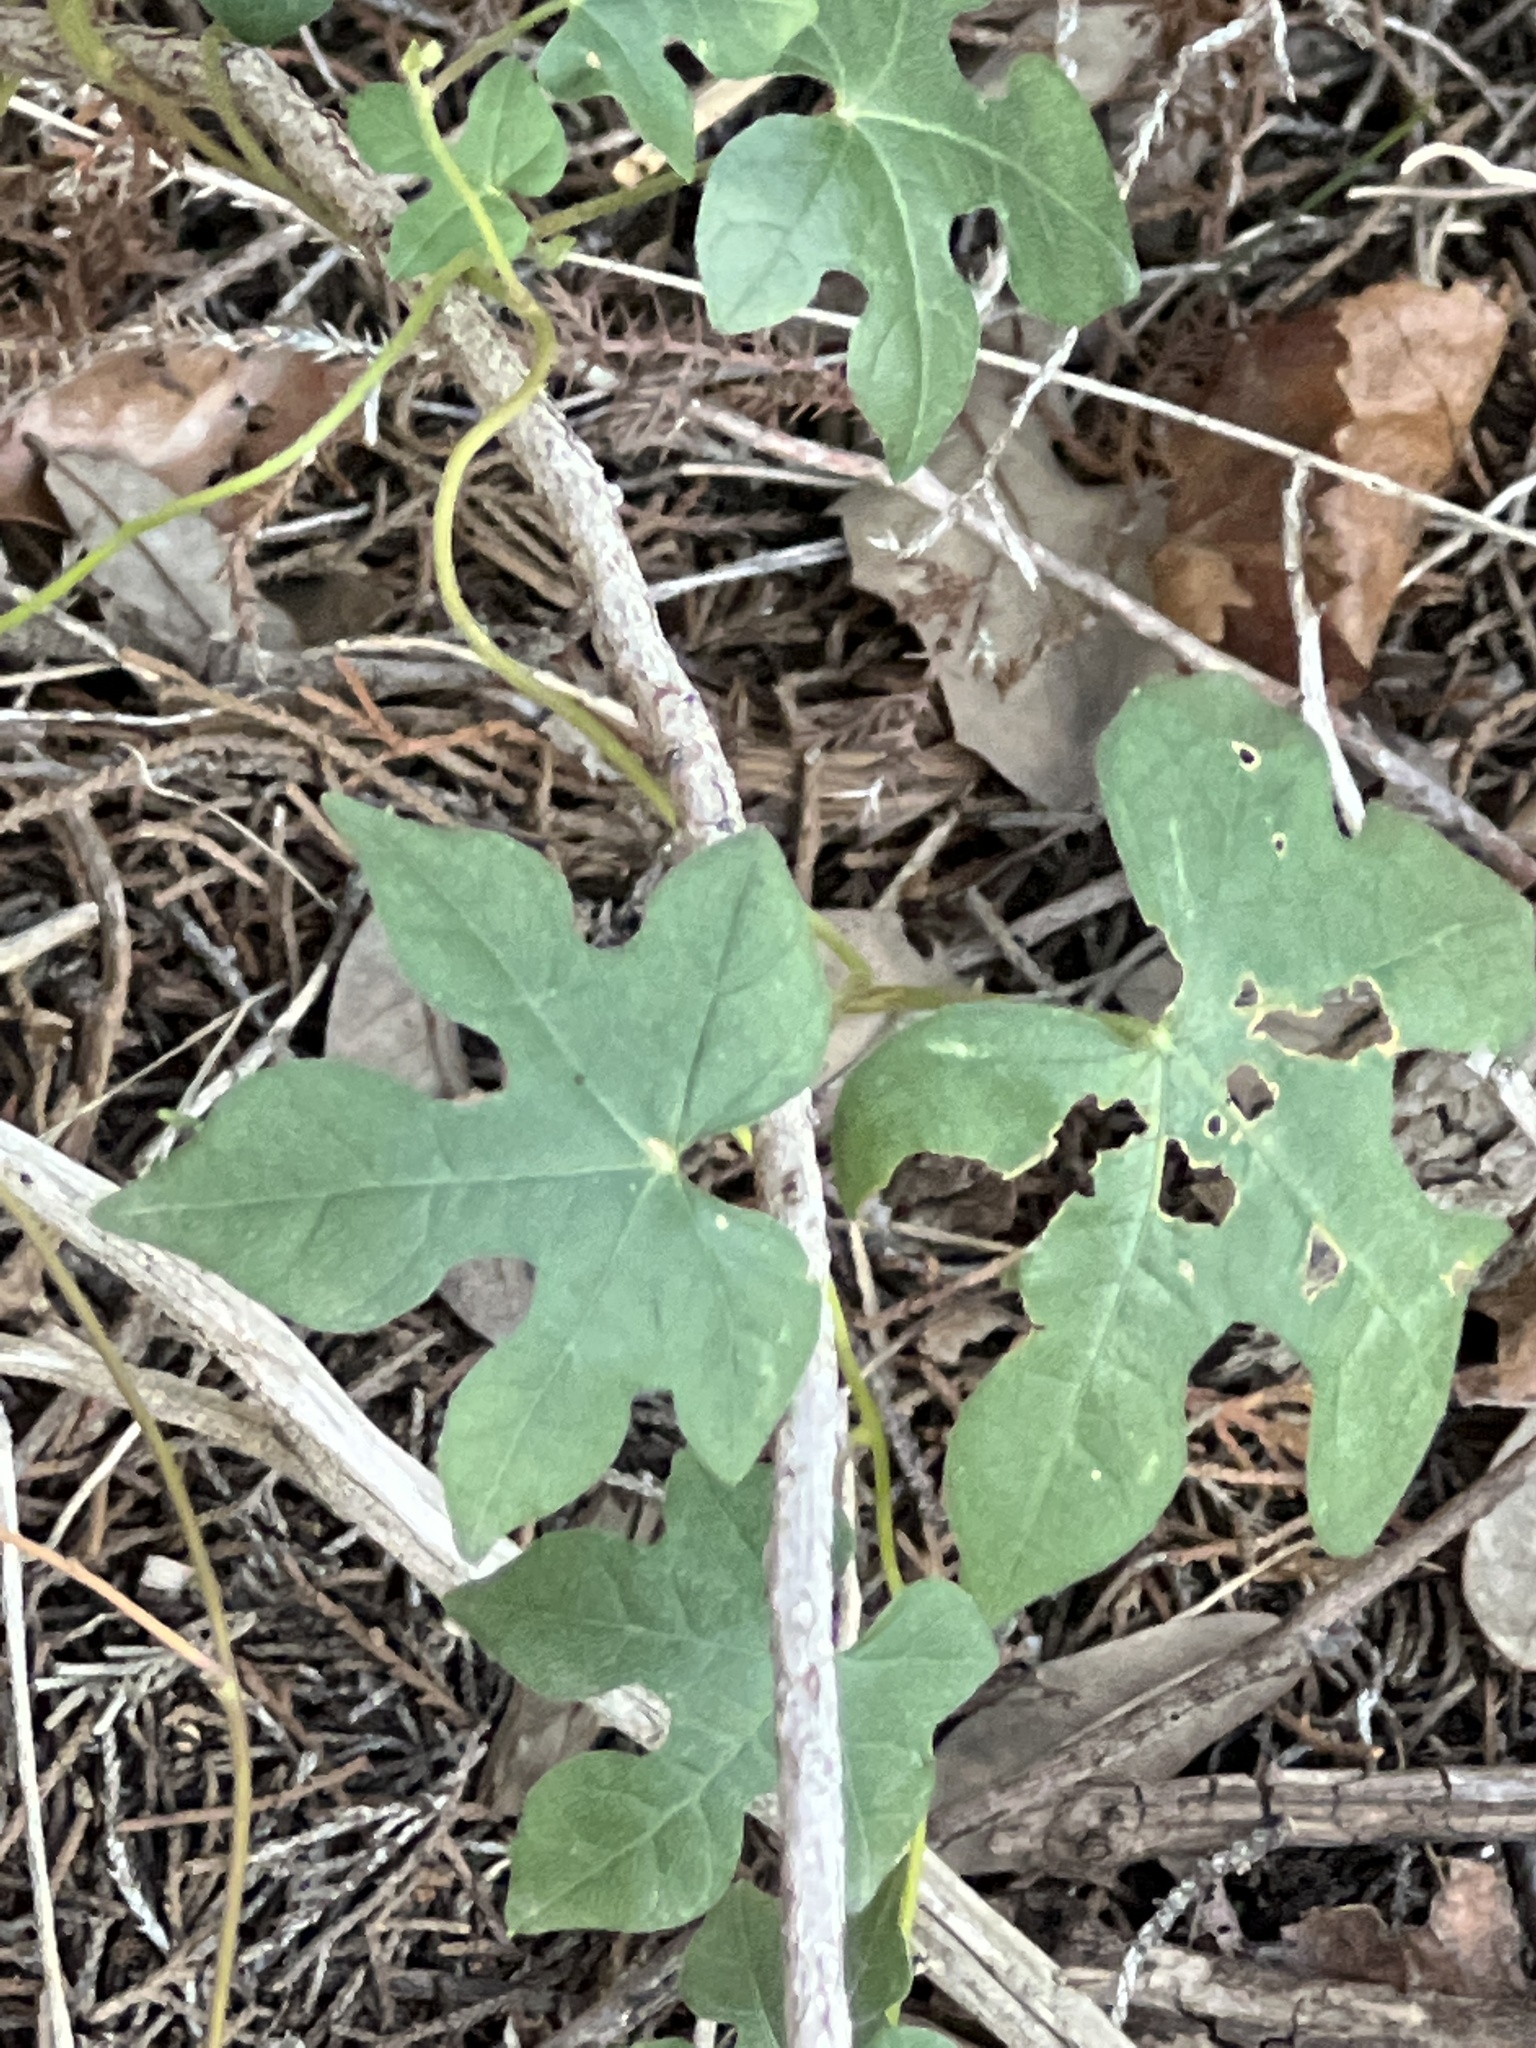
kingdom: Plantae
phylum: Tracheophyta
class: Magnoliopsida
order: Solanales
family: Convolvulaceae
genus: Ipomoea
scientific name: Ipomoea lindheimeri
